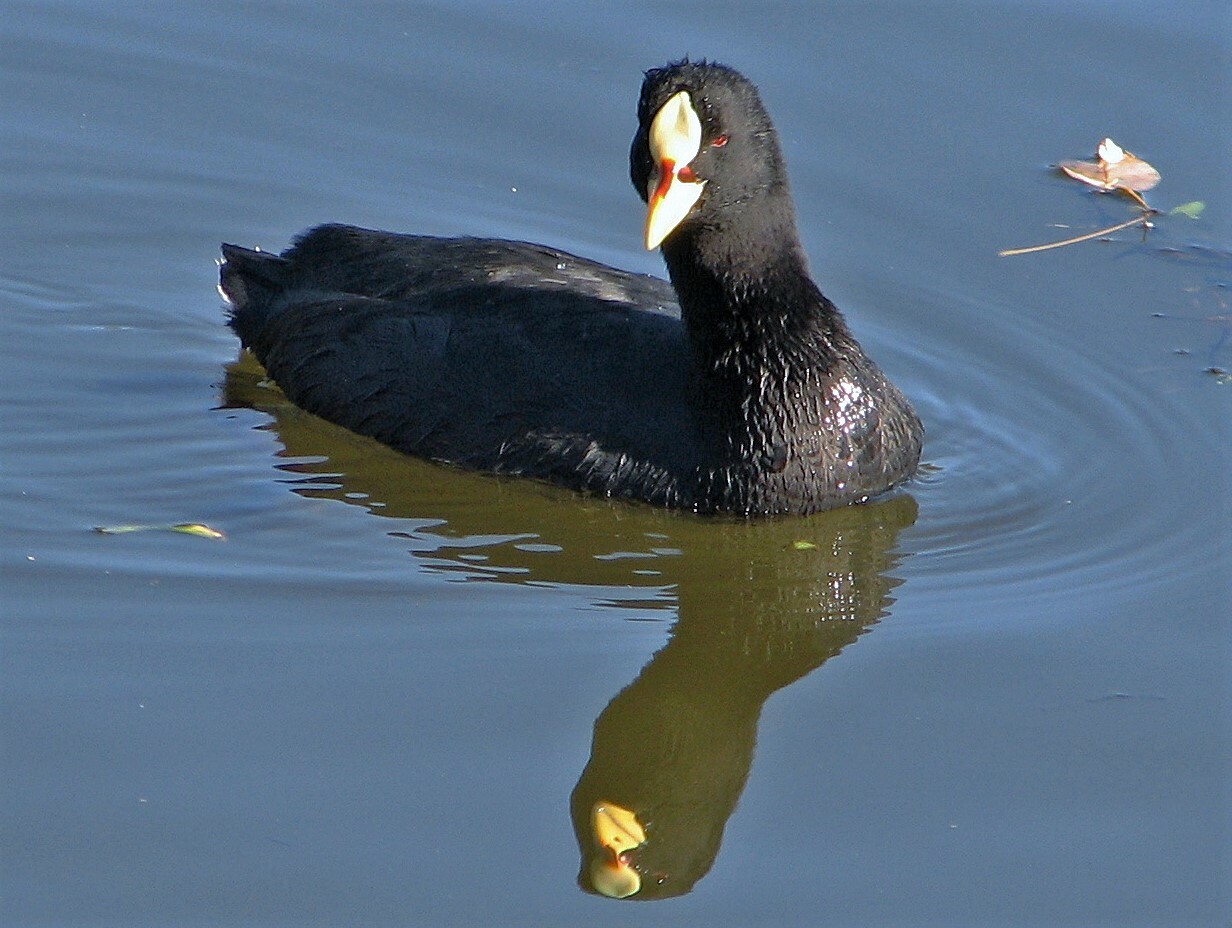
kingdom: Animalia
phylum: Chordata
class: Aves
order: Gruiformes
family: Rallidae
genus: Fulica
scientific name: Fulica armillata
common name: Red-gartered coot
